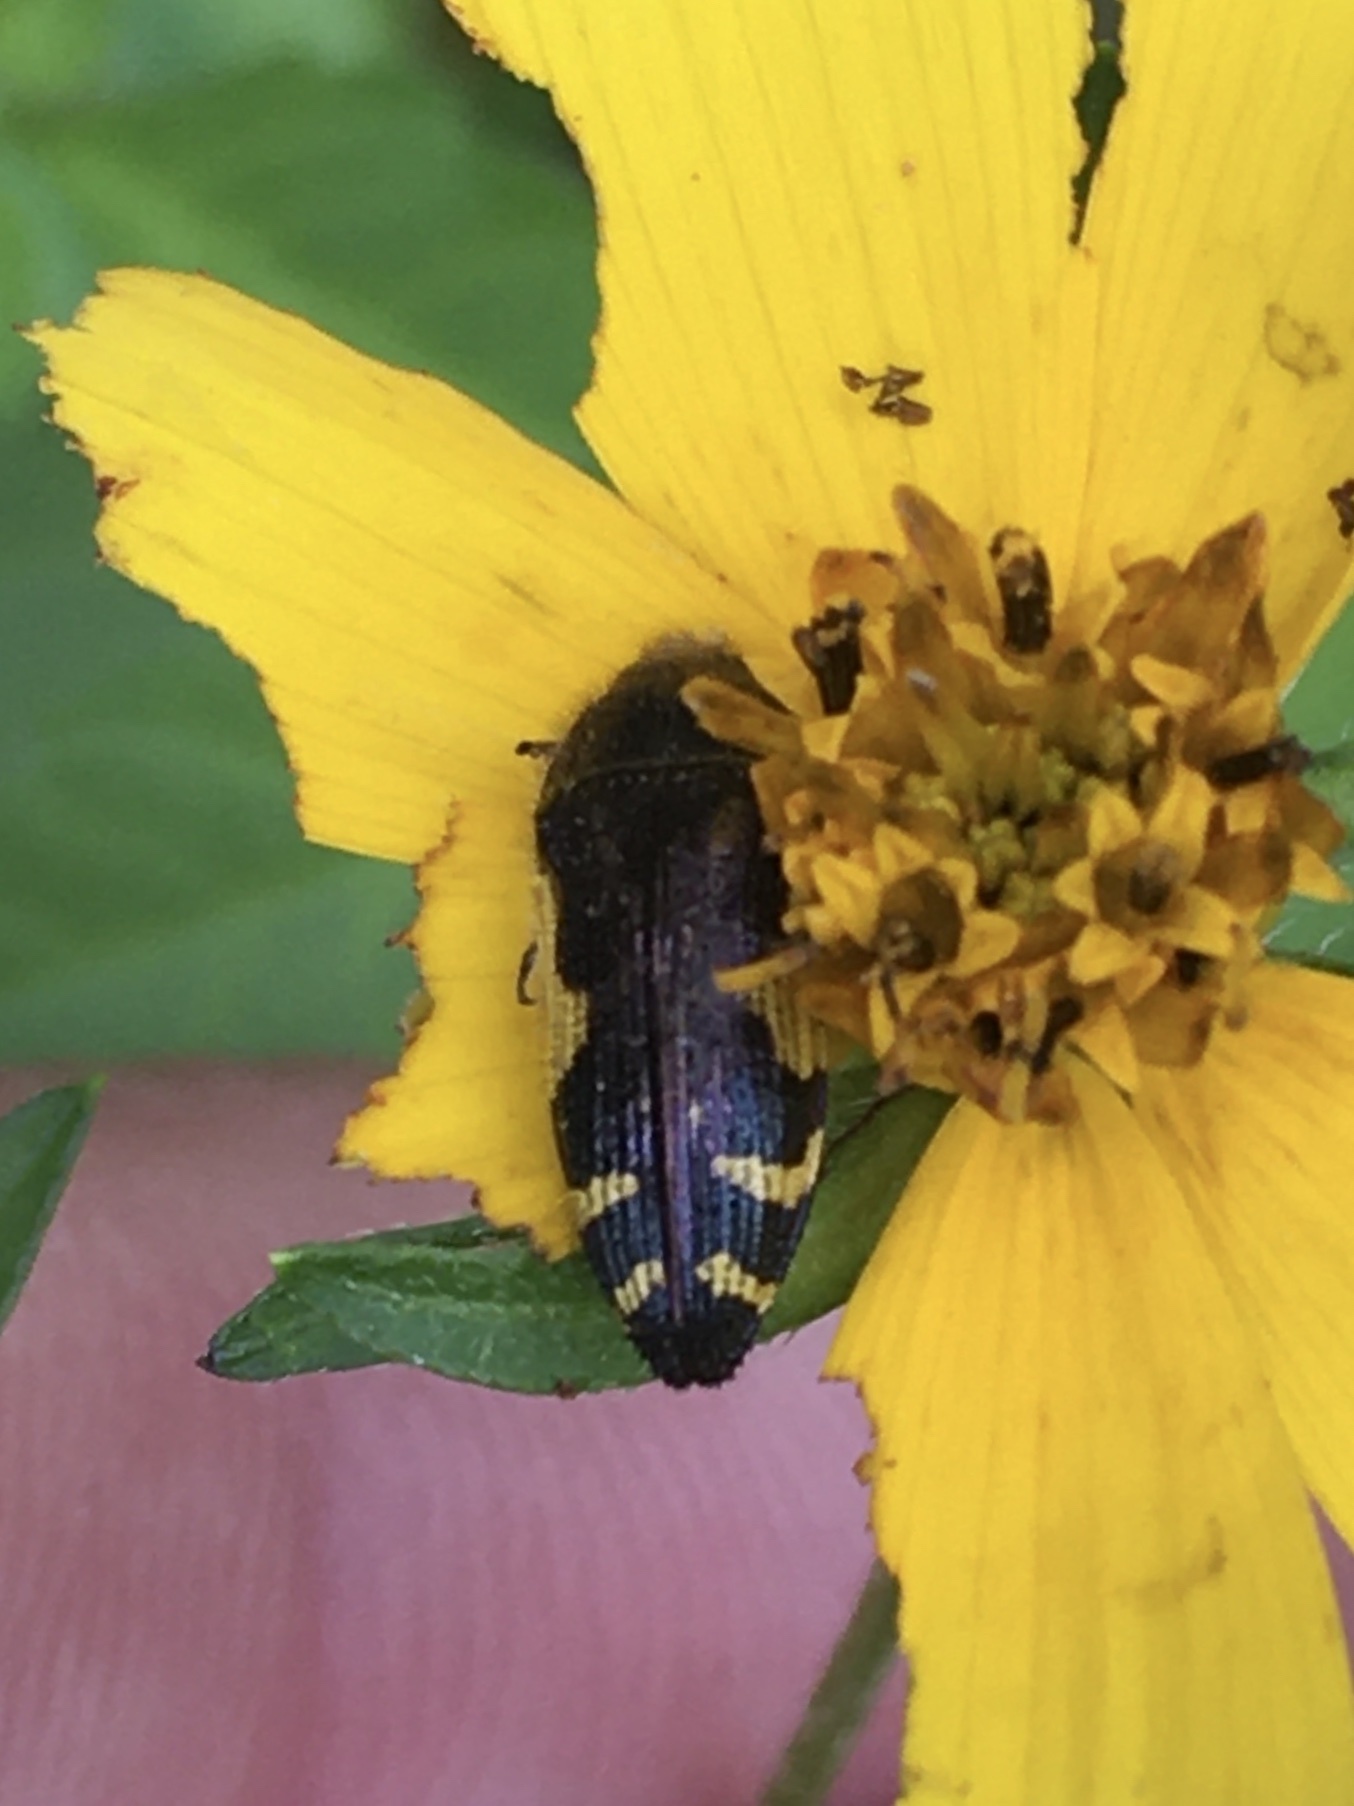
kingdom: Animalia
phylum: Arthropoda
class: Insecta
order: Coleoptera
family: Buprestidae
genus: Acmaeodera
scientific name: Acmaeodera pulchella
